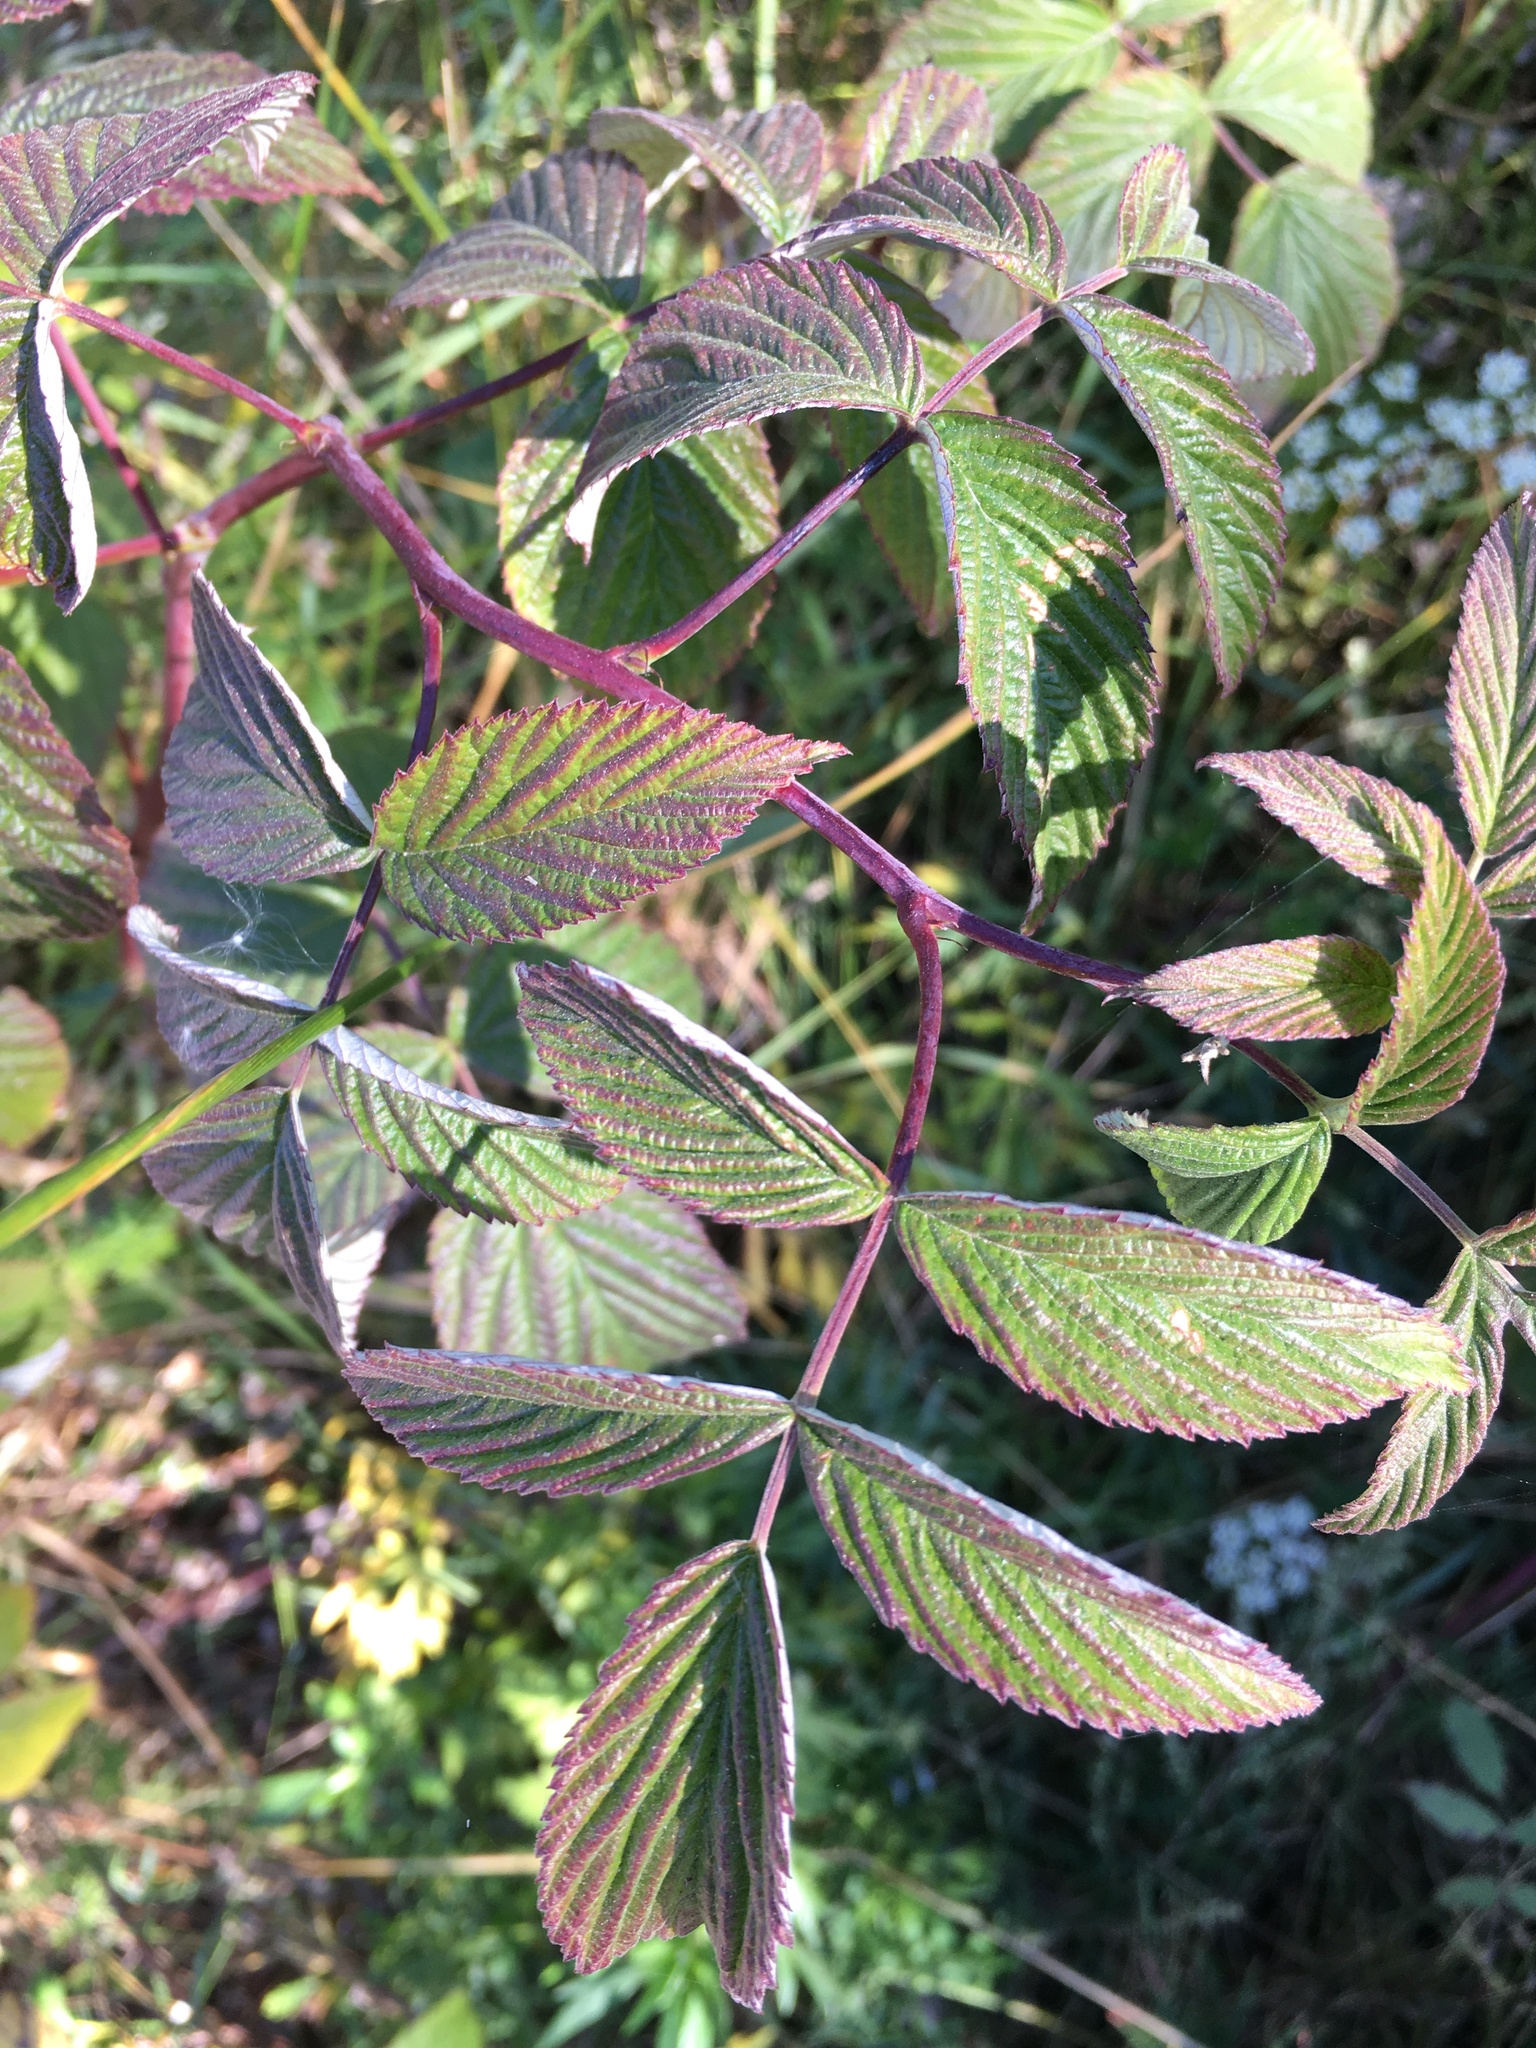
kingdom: Plantae
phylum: Tracheophyta
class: Magnoliopsida
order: Rosales
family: Rosaceae
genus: Rubus
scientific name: Rubus idaeus
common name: Raspberry
